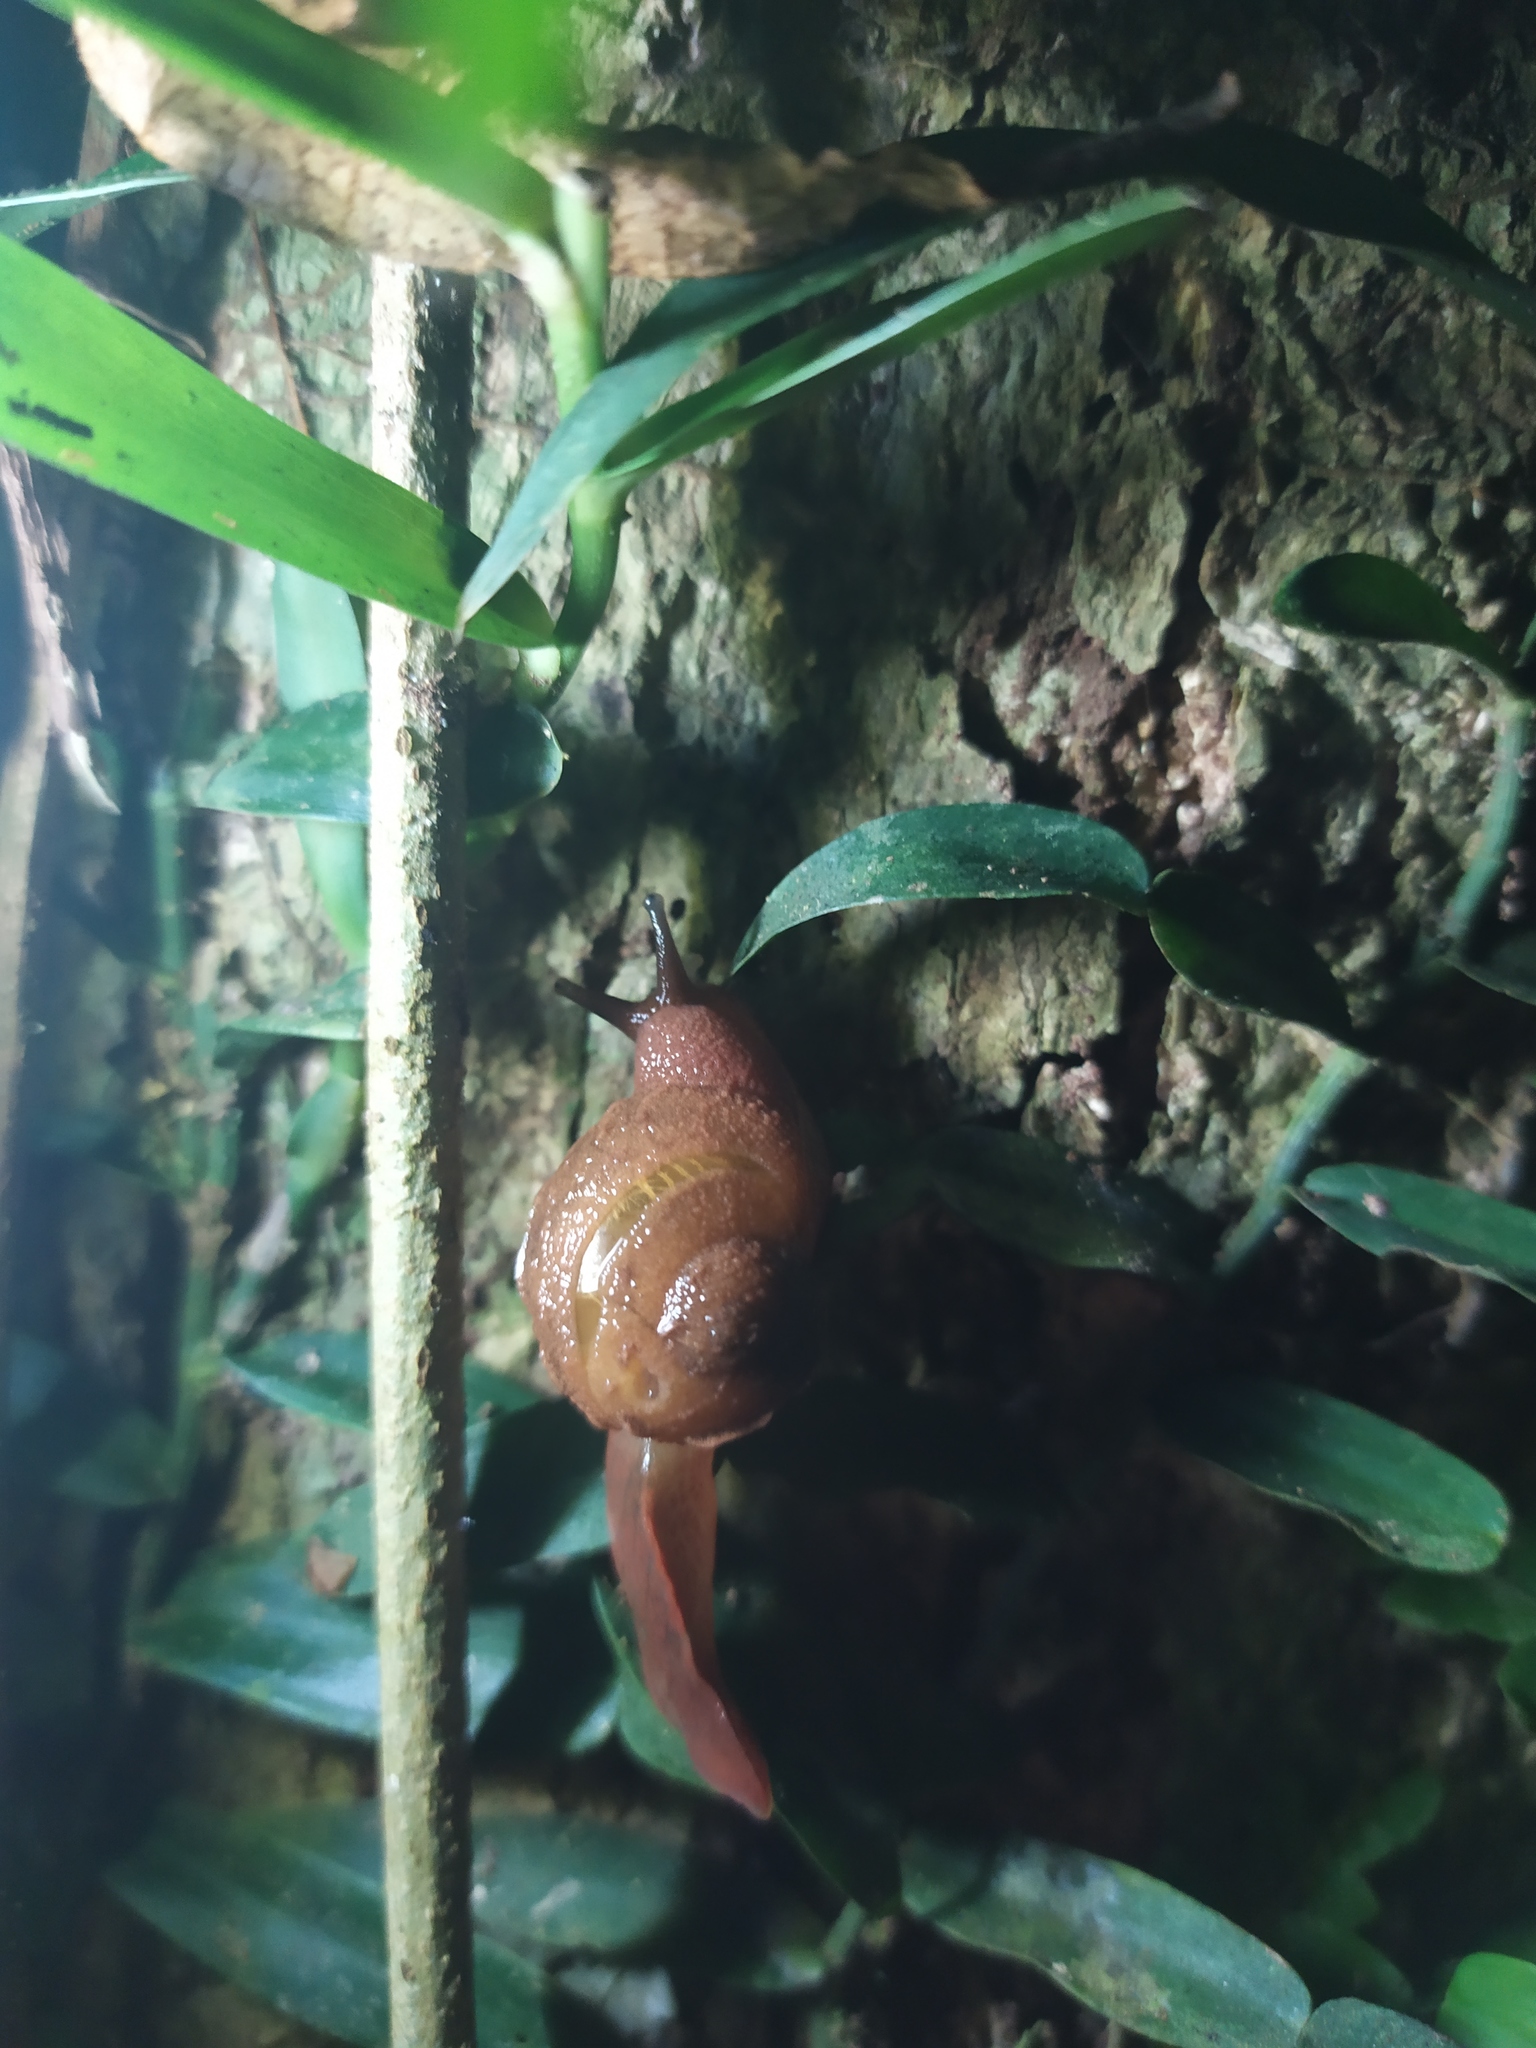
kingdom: Animalia
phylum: Mollusca
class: Gastropoda
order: Stylommatophora
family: Helicarionidae
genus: Fastosarion
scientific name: Fastosarion brazieri
